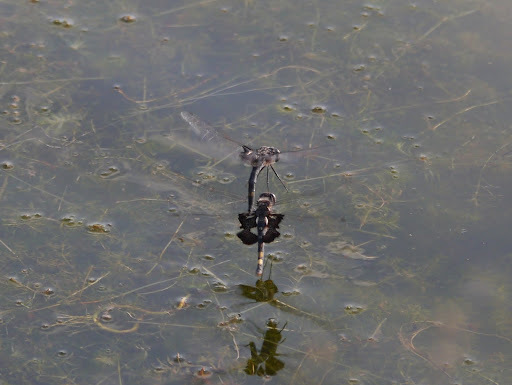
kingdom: Animalia
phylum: Arthropoda
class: Insecta
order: Odonata
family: Libellulidae
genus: Tramea
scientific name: Tramea lacerata
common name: Black saddlebags
